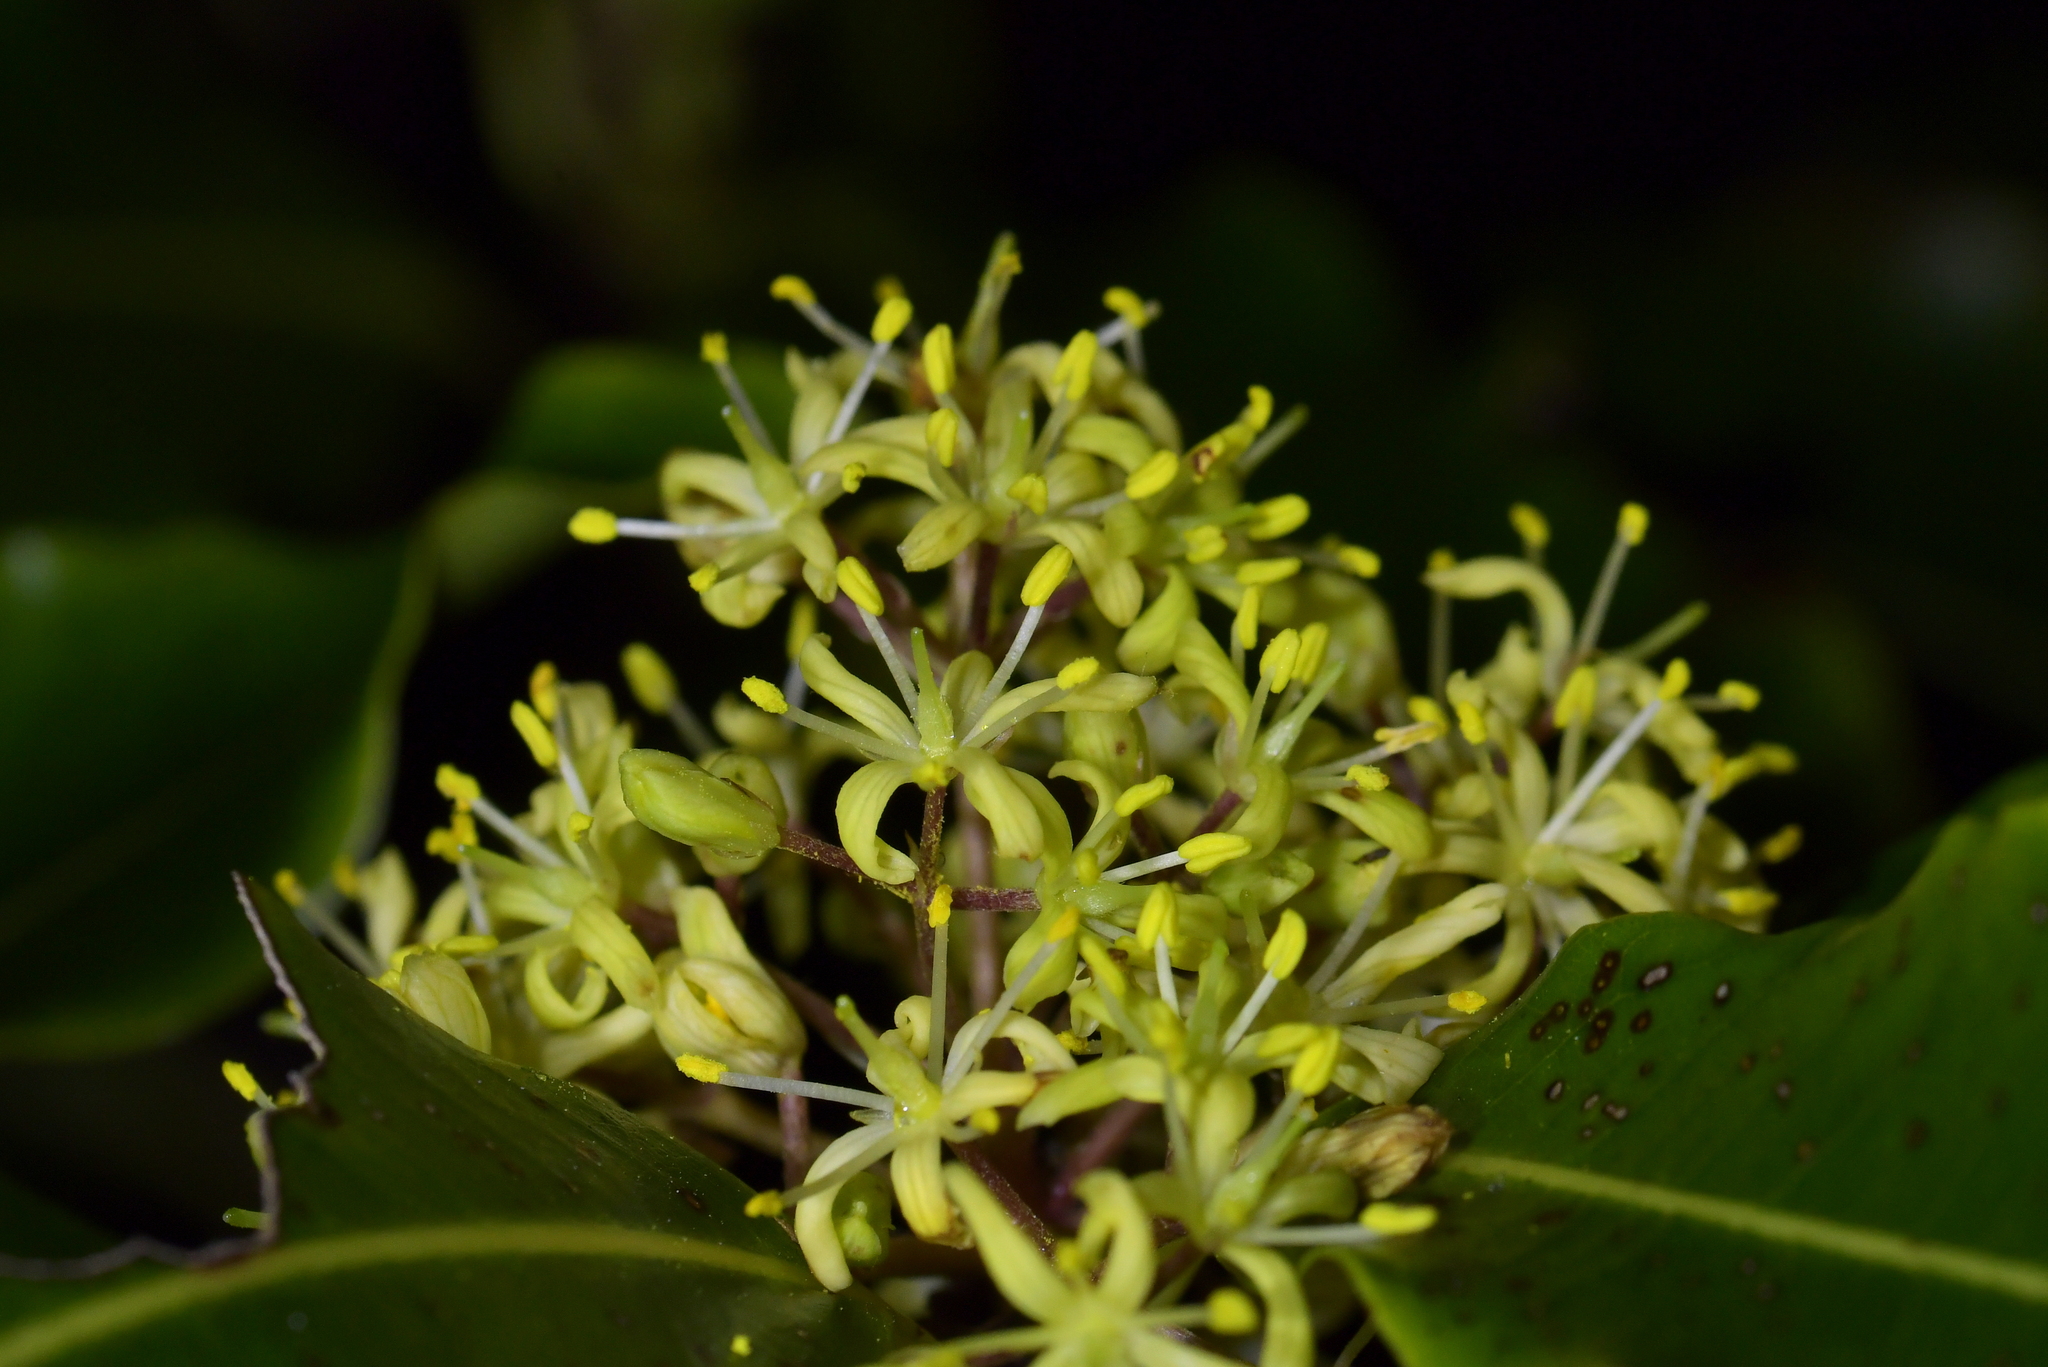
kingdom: Plantae
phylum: Tracheophyta
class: Magnoliopsida
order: Apiales
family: Pittosporaceae
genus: Pittosporum
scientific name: Pittosporum eugenioides
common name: Lemonwood
